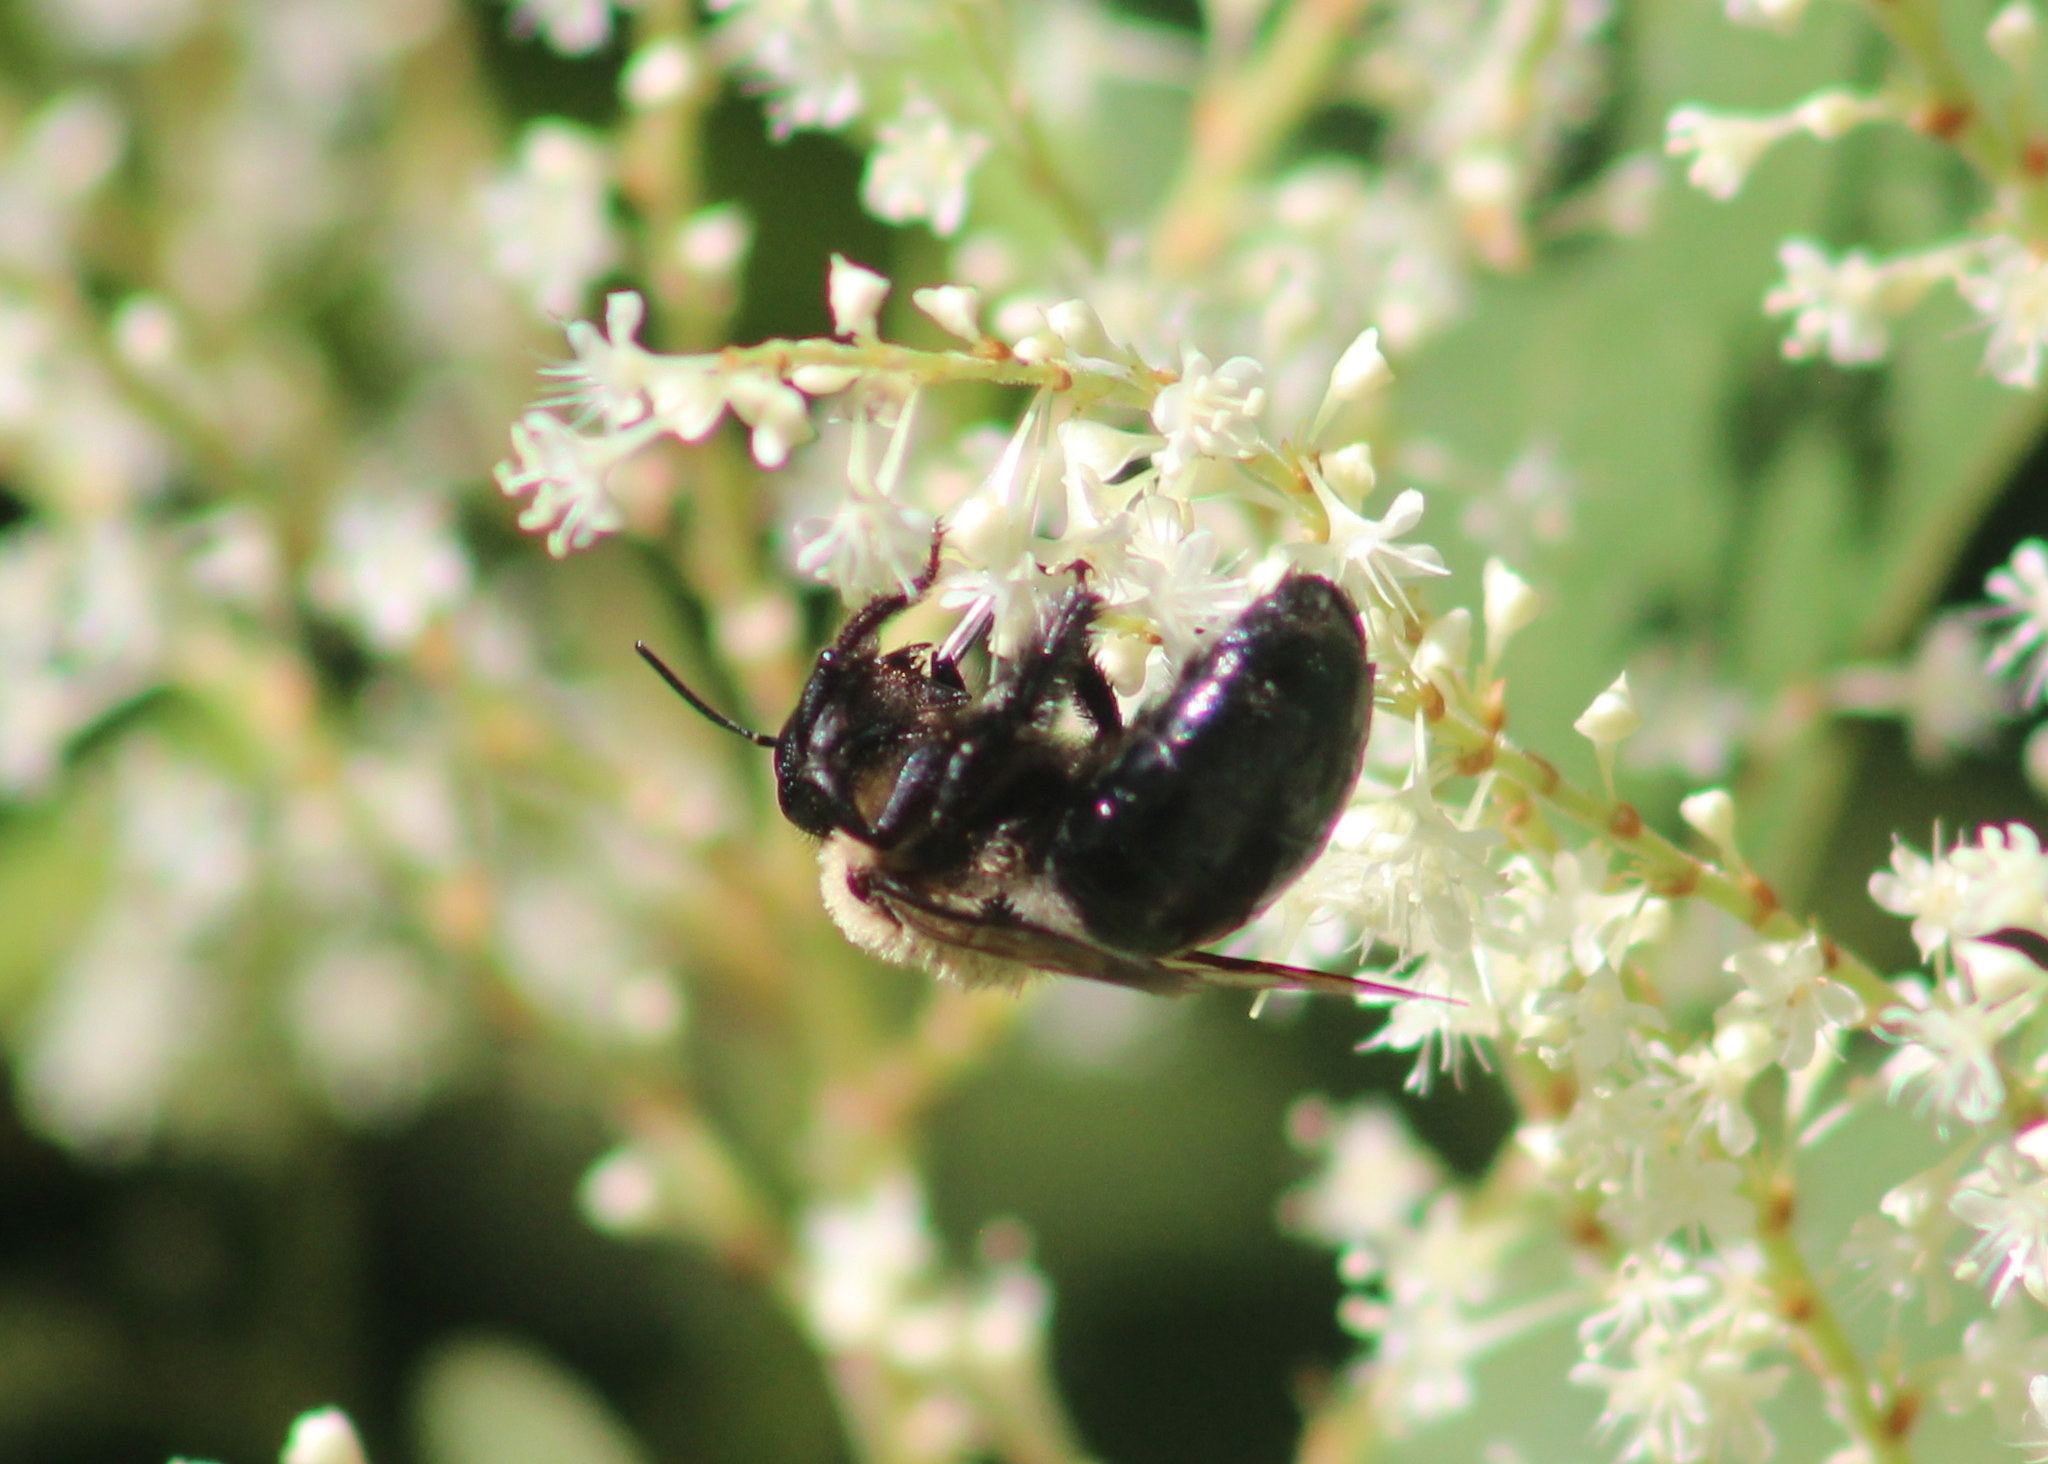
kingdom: Animalia
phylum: Arthropoda
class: Insecta
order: Hymenoptera
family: Apidae
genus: Xylocopa
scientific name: Xylocopa virginica
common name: Carpenter bee
